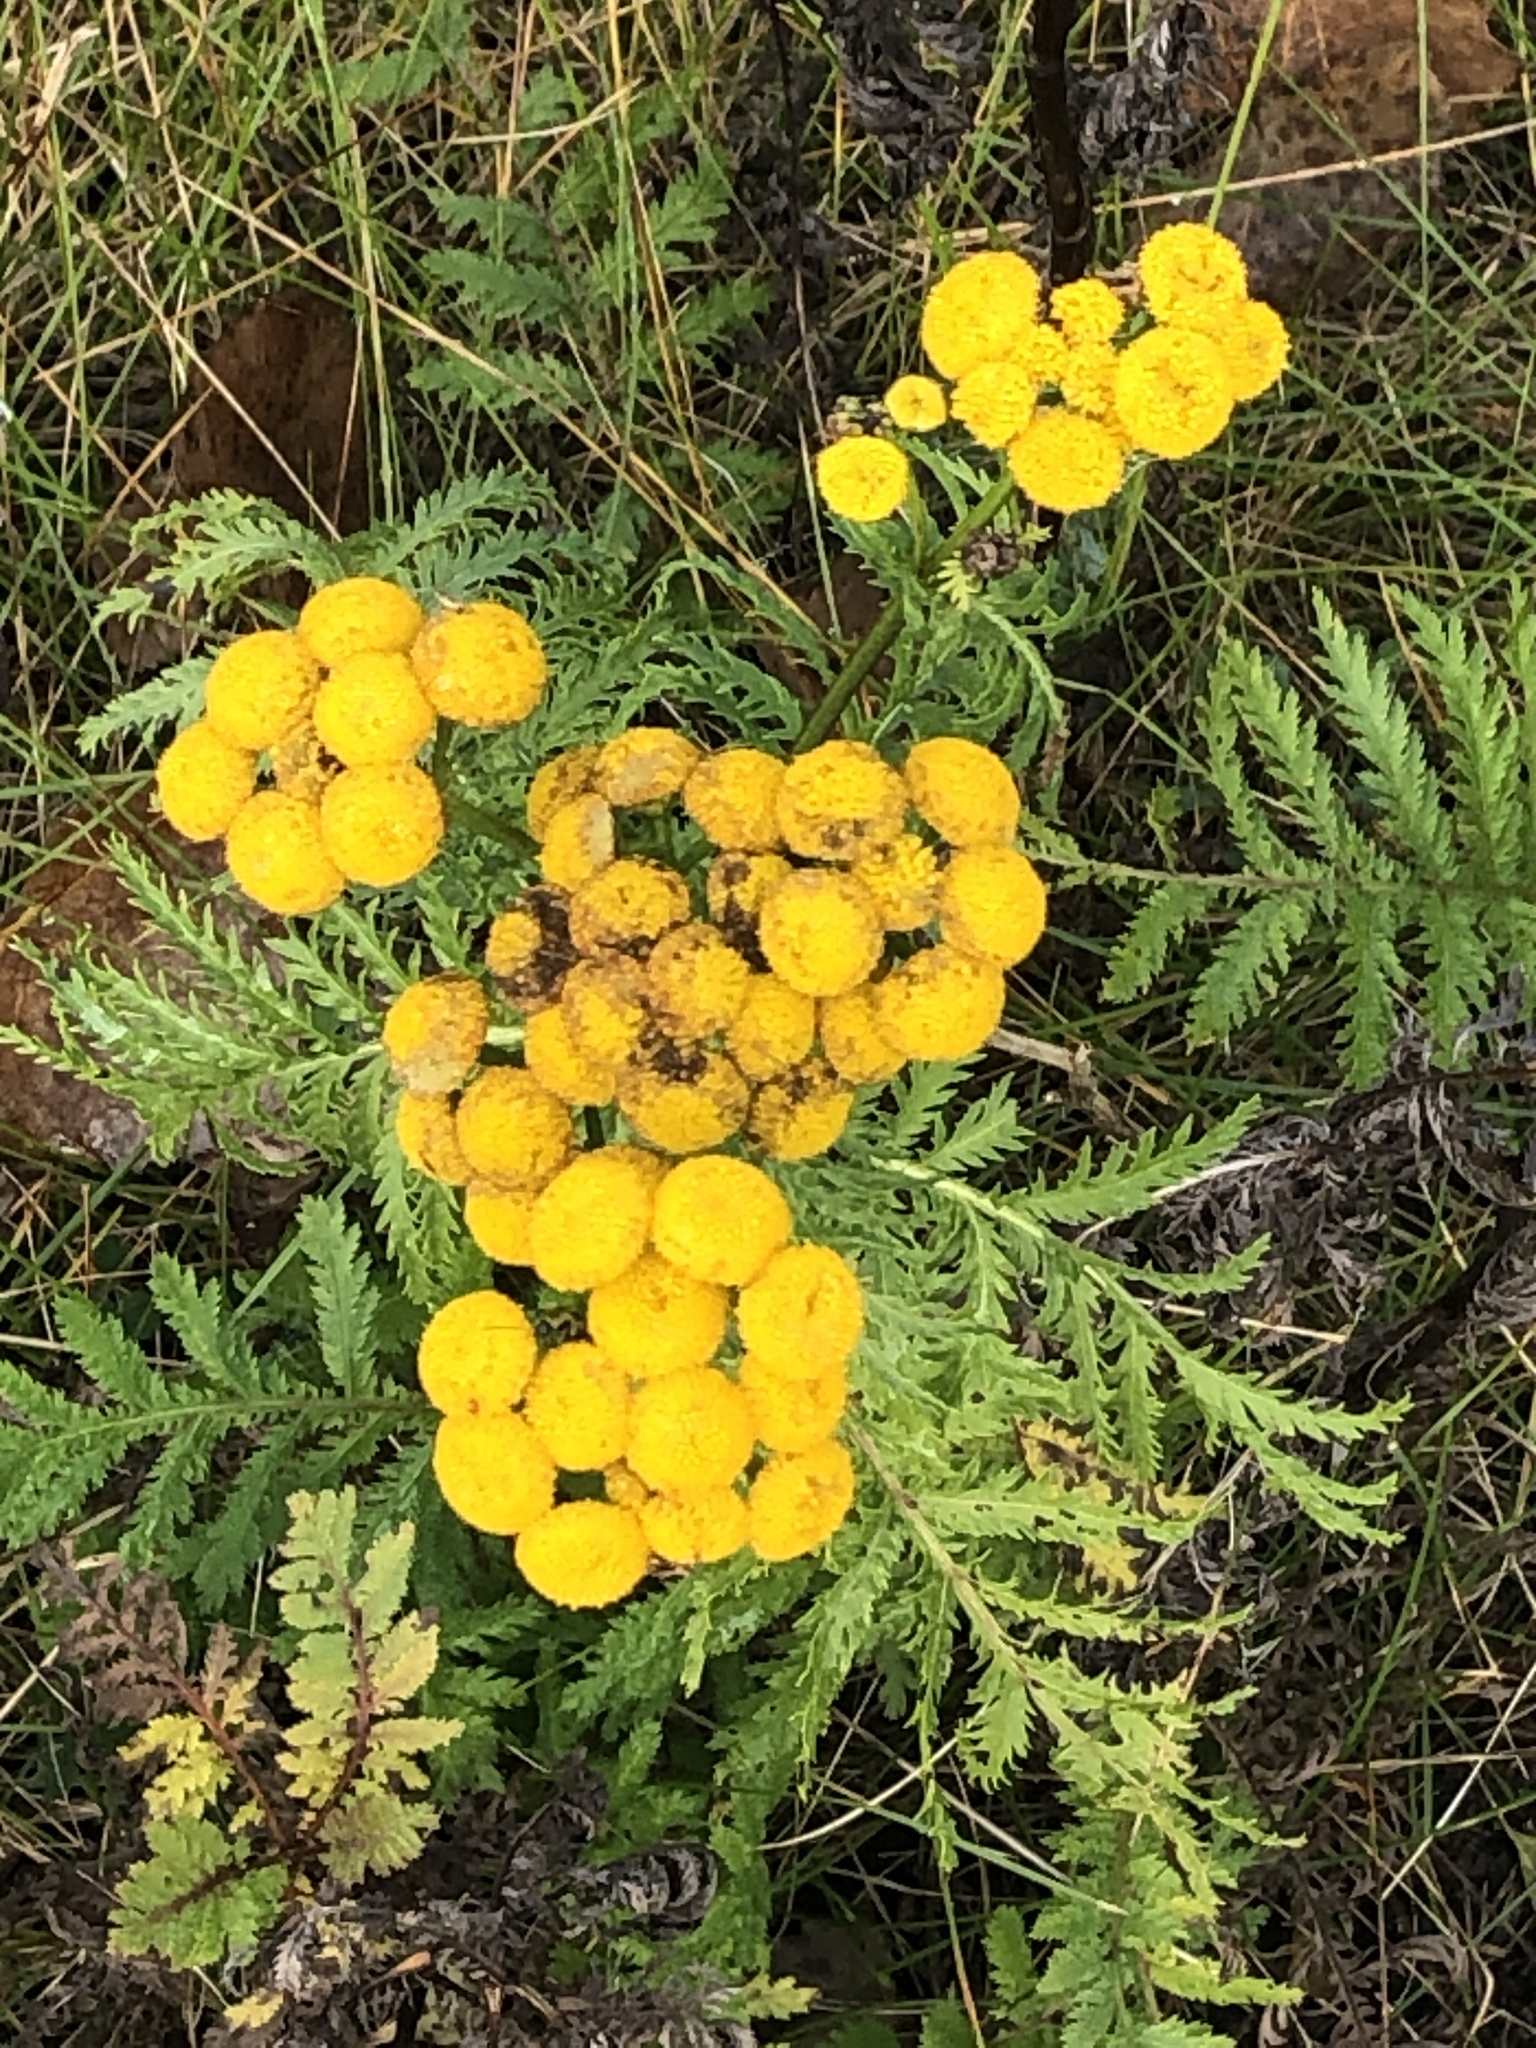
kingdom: Plantae
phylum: Tracheophyta
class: Magnoliopsida
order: Asterales
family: Asteraceae
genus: Tanacetum
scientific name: Tanacetum vulgare
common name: Common tansy
